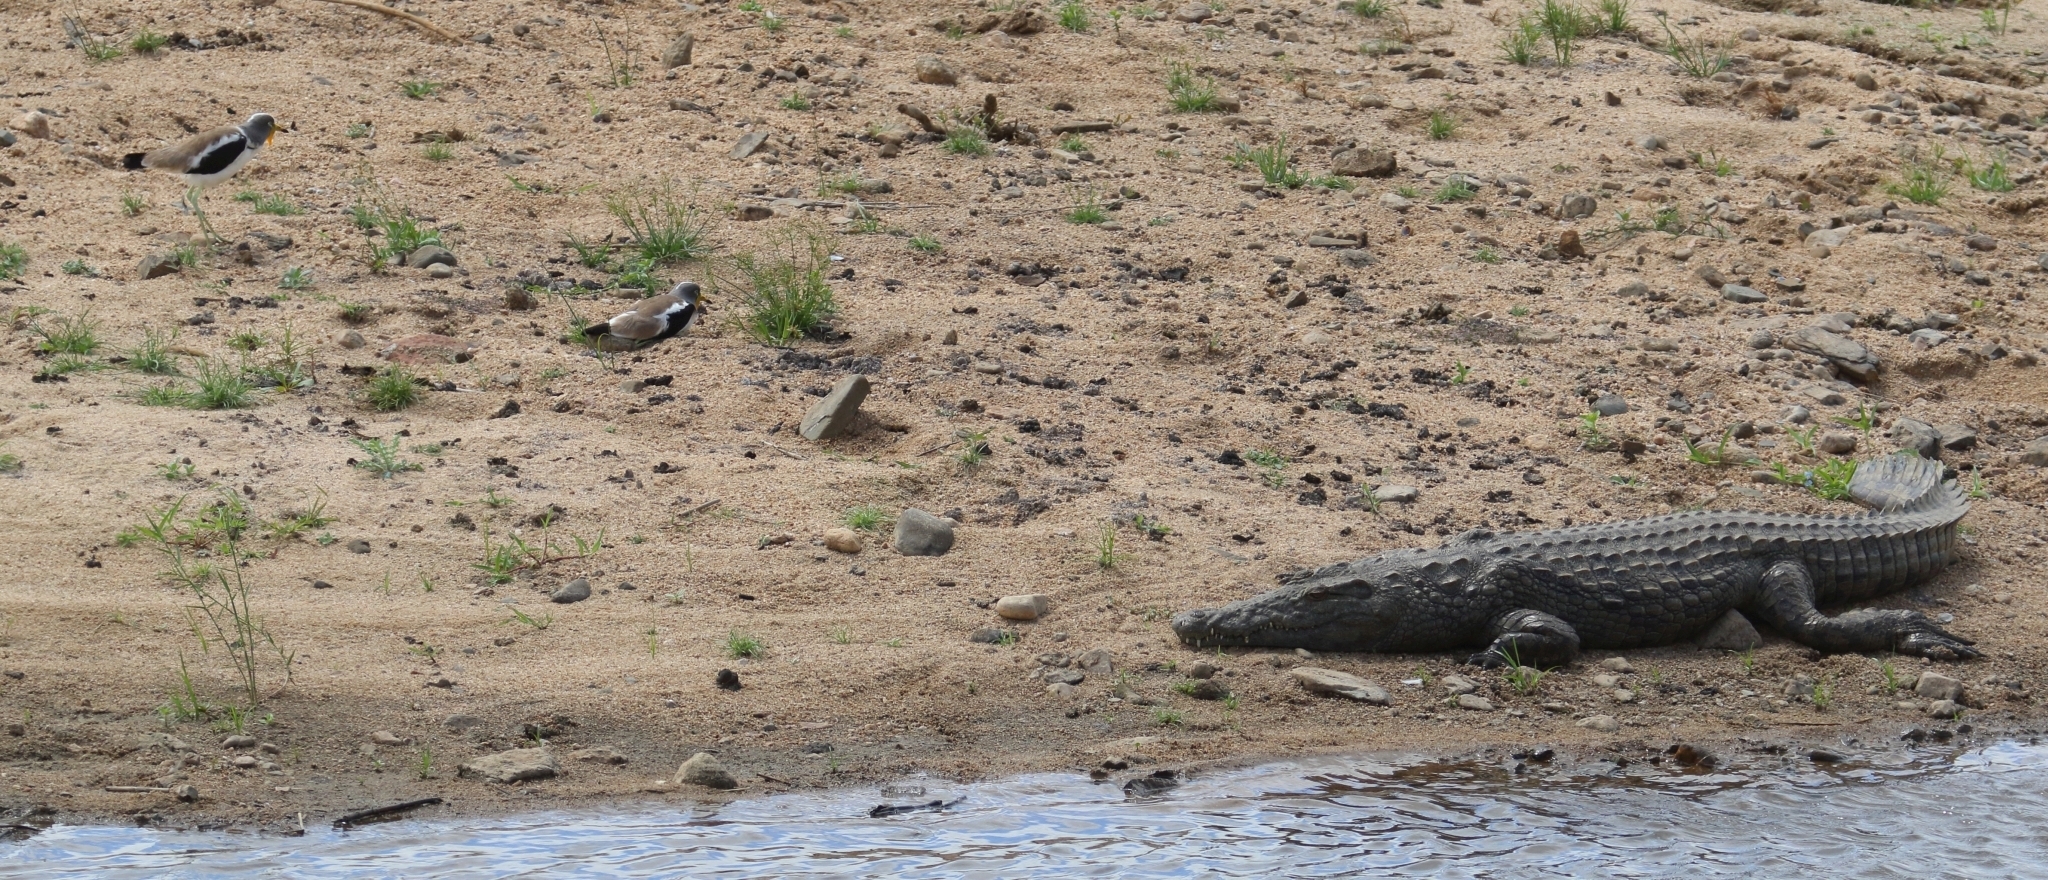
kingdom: Animalia
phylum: Chordata
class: Aves
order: Charadriiformes
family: Charadriidae
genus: Vanellus
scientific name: Vanellus albiceps
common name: White-crowned lapwing
